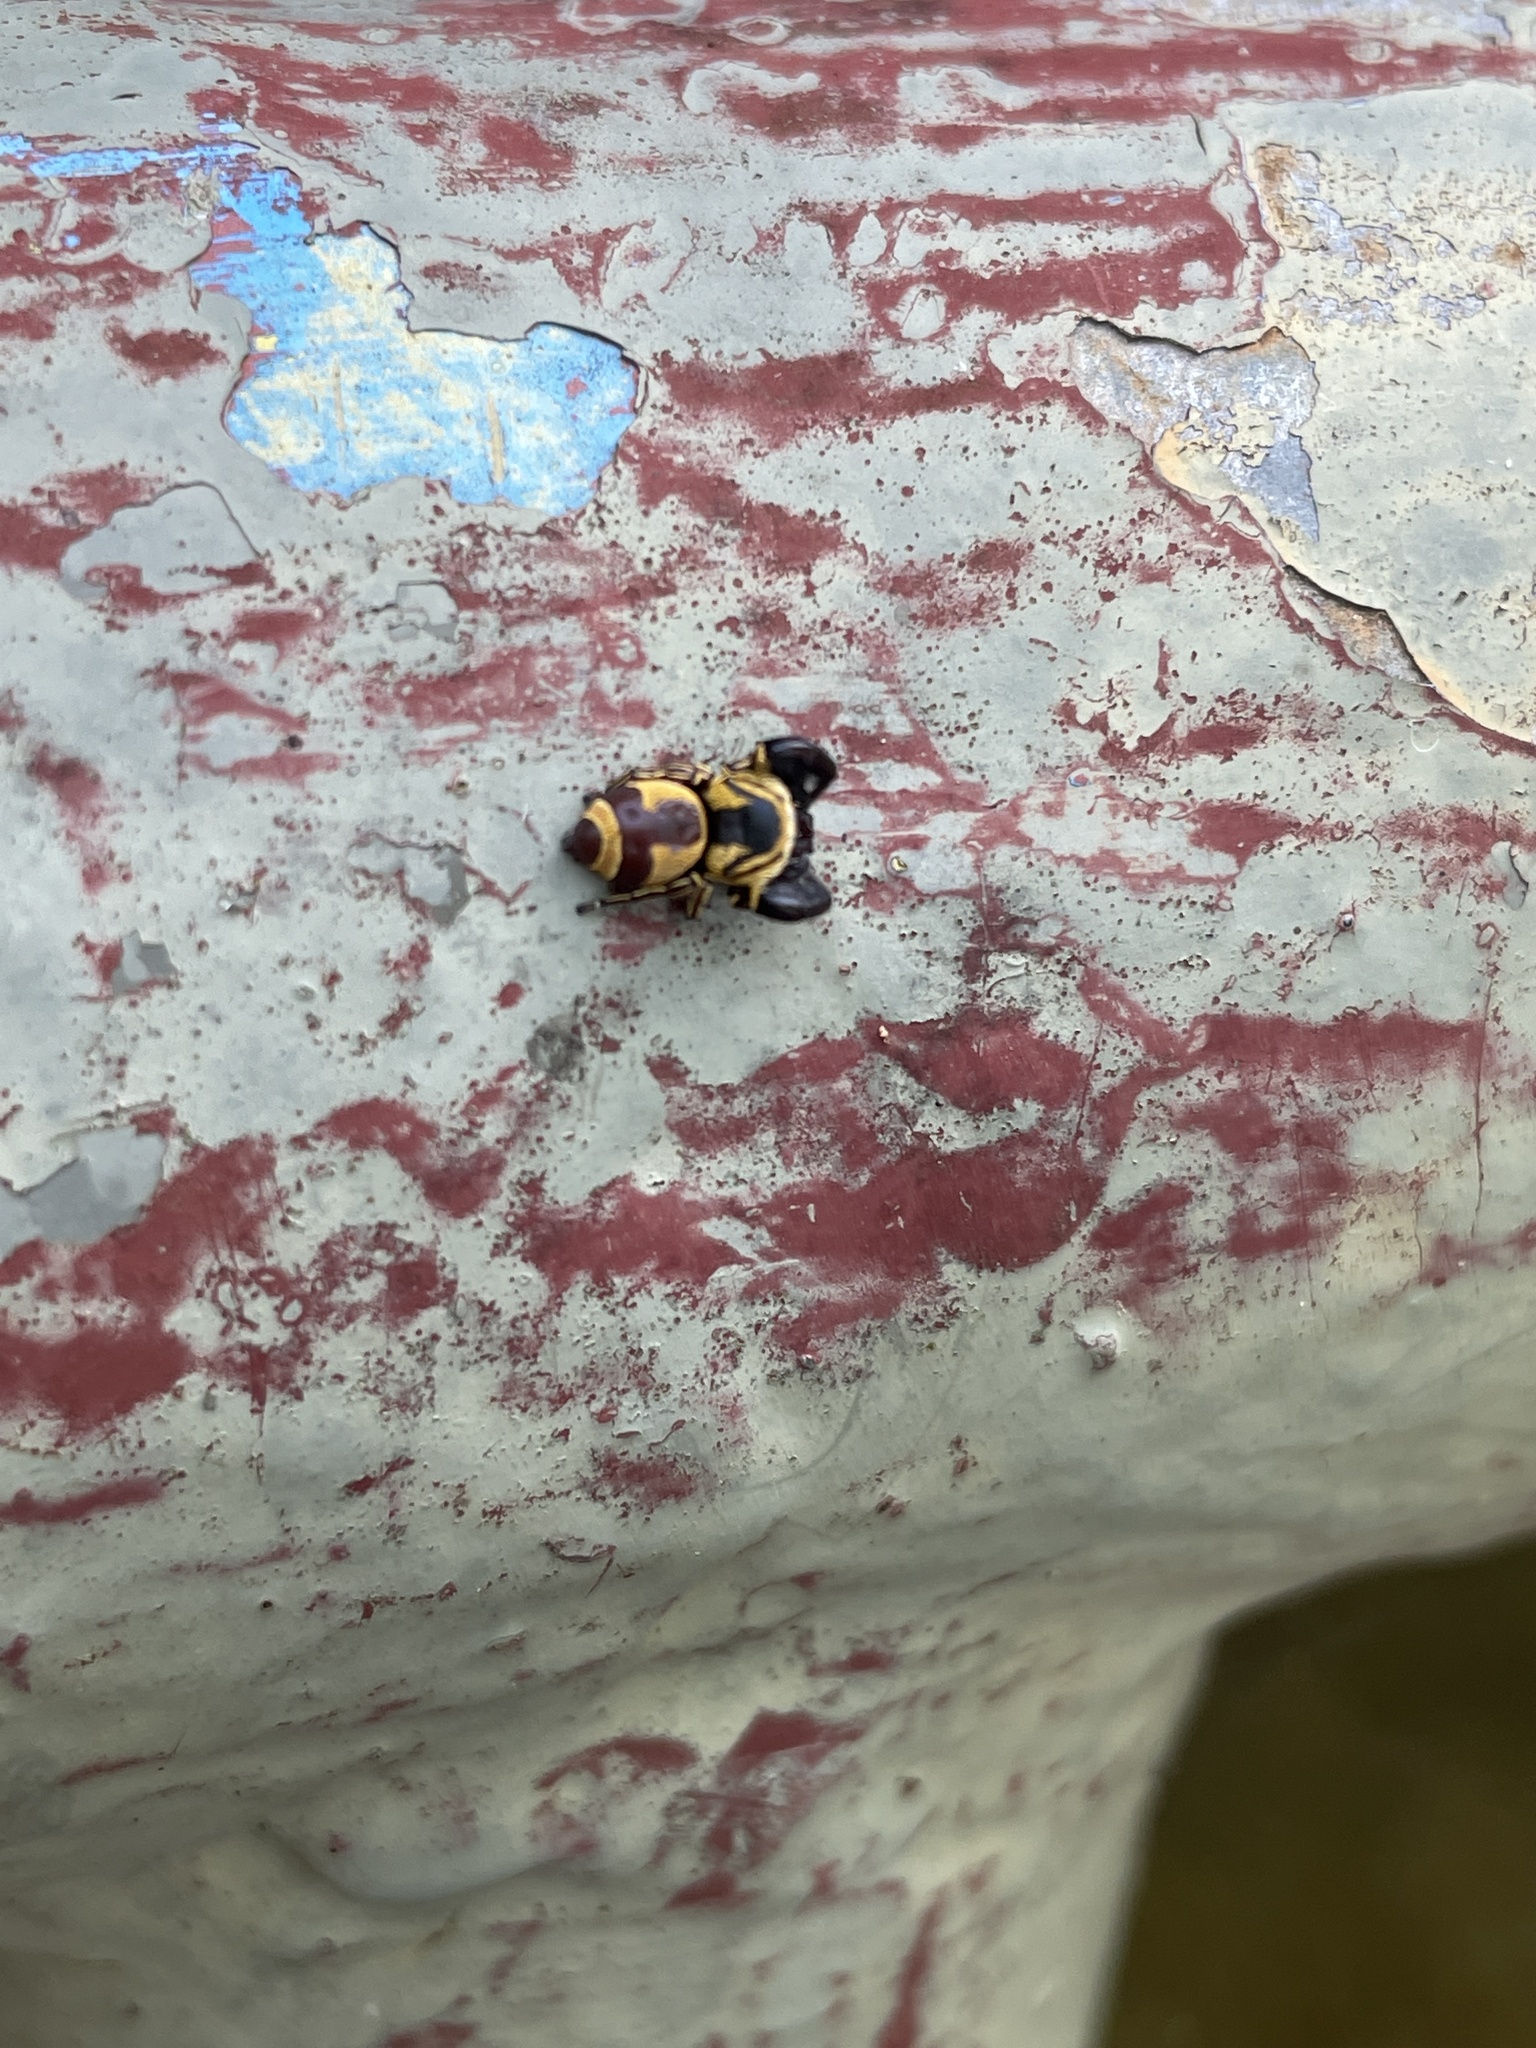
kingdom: Animalia
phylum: Arthropoda
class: Arachnida
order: Araneae
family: Salticidae
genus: Rhene
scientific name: Rhene flavicomans
